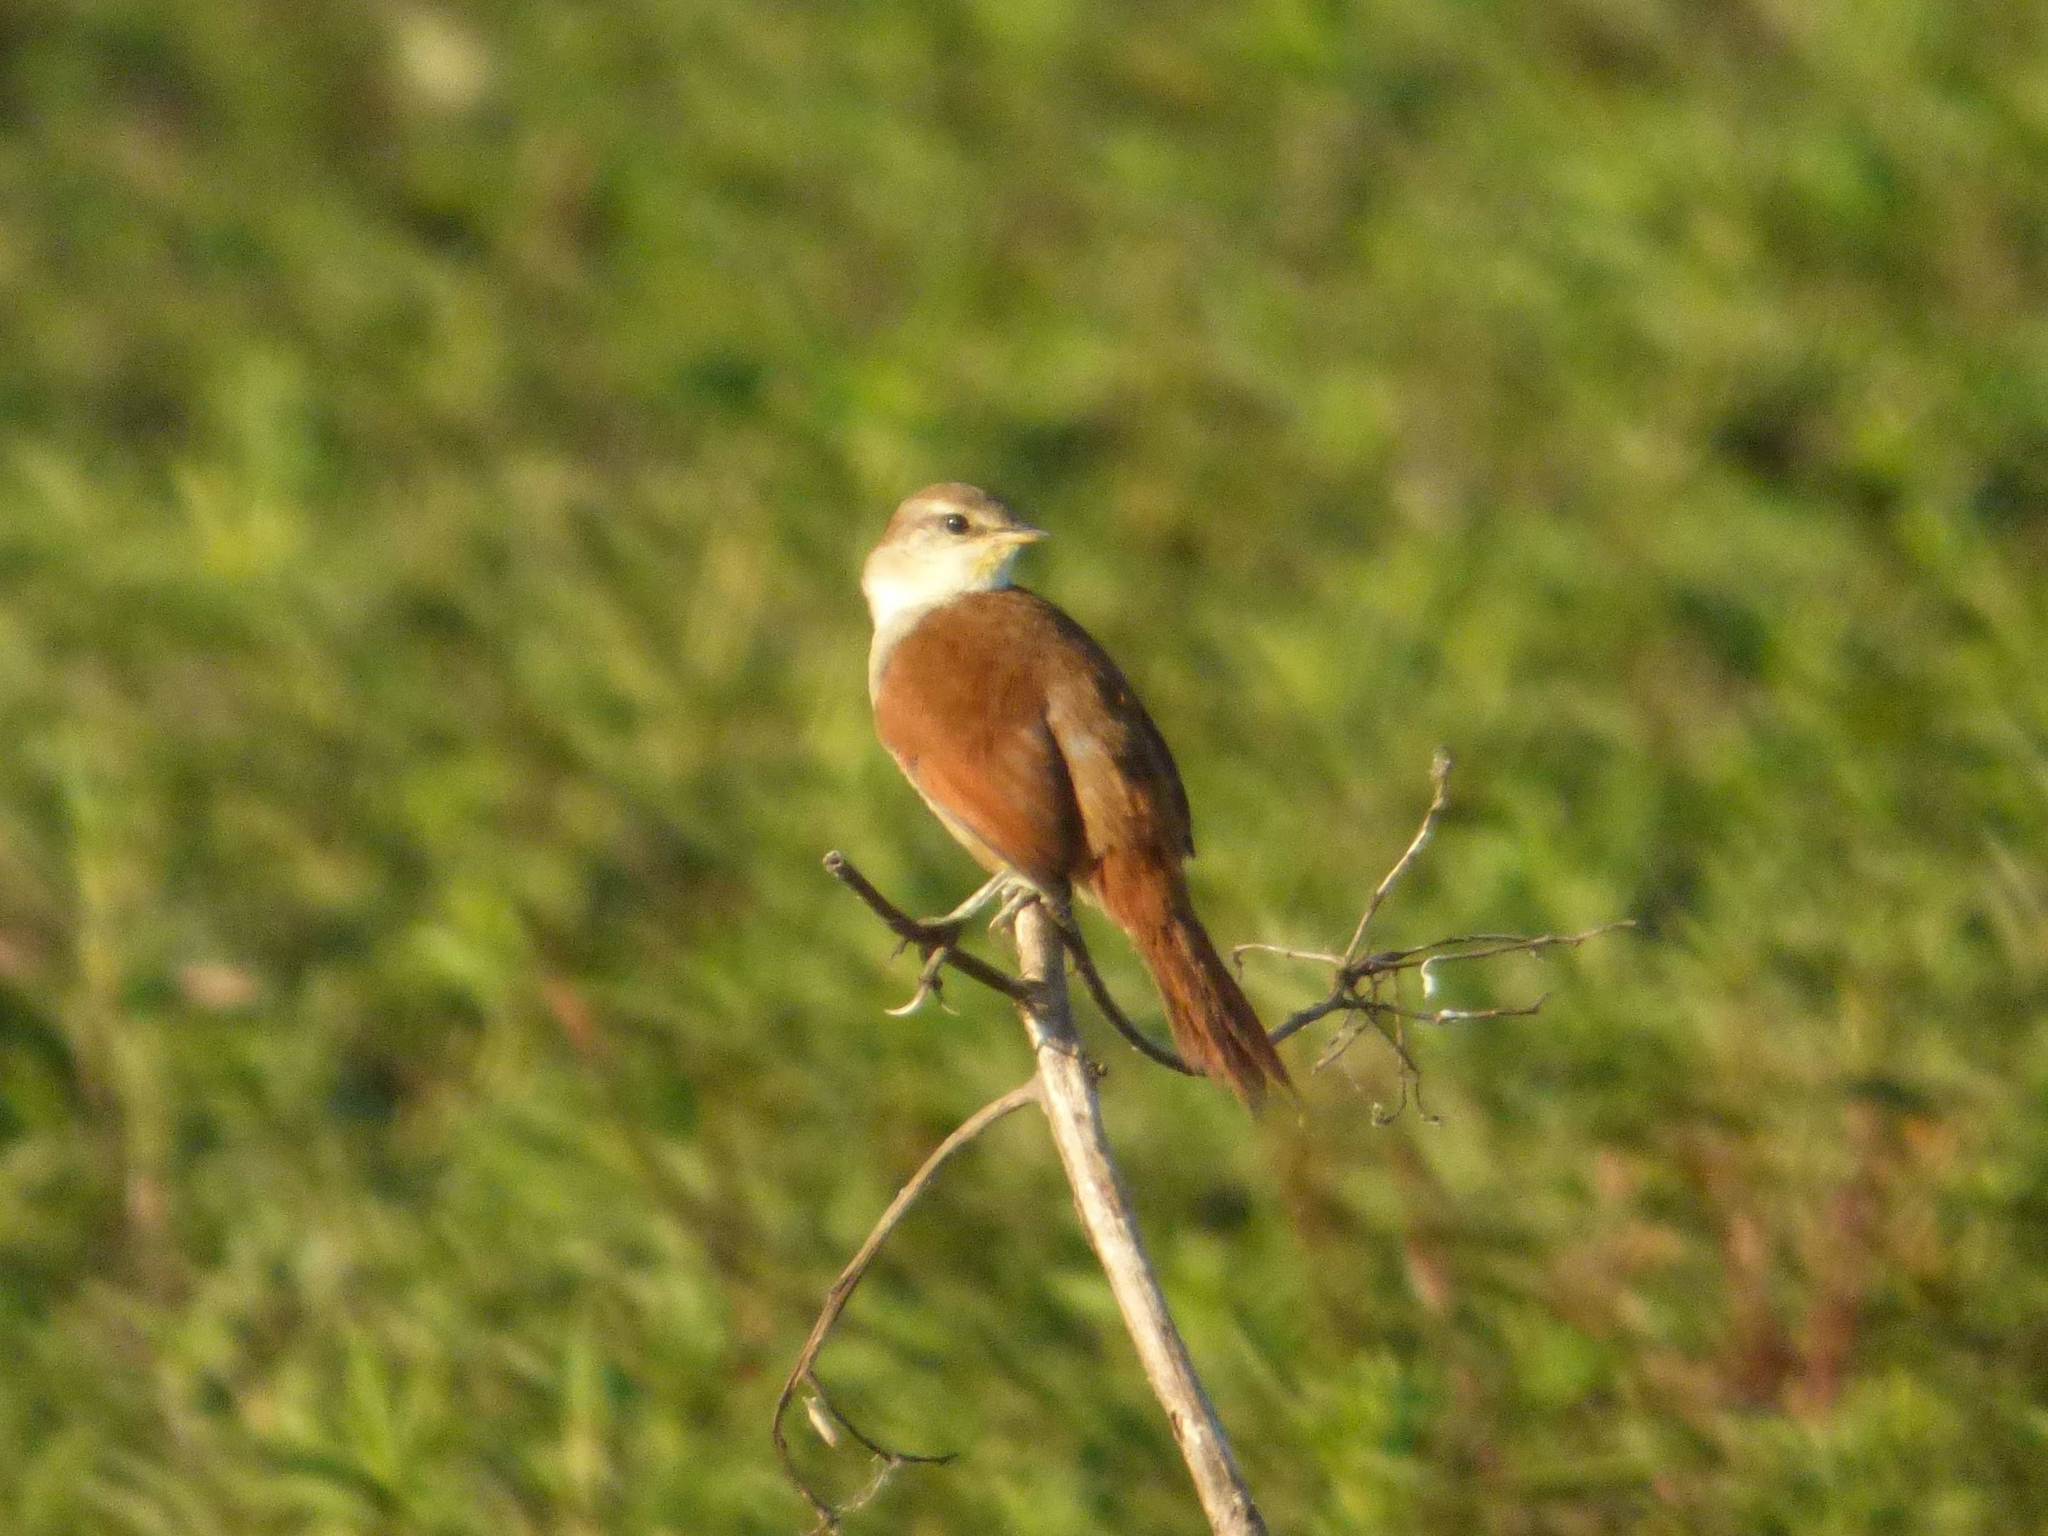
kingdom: Animalia
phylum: Chordata
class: Aves
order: Passeriformes
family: Furnariidae
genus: Certhiaxis
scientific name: Certhiaxis cinnamomeus
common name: Yellow-chinned spinetail
